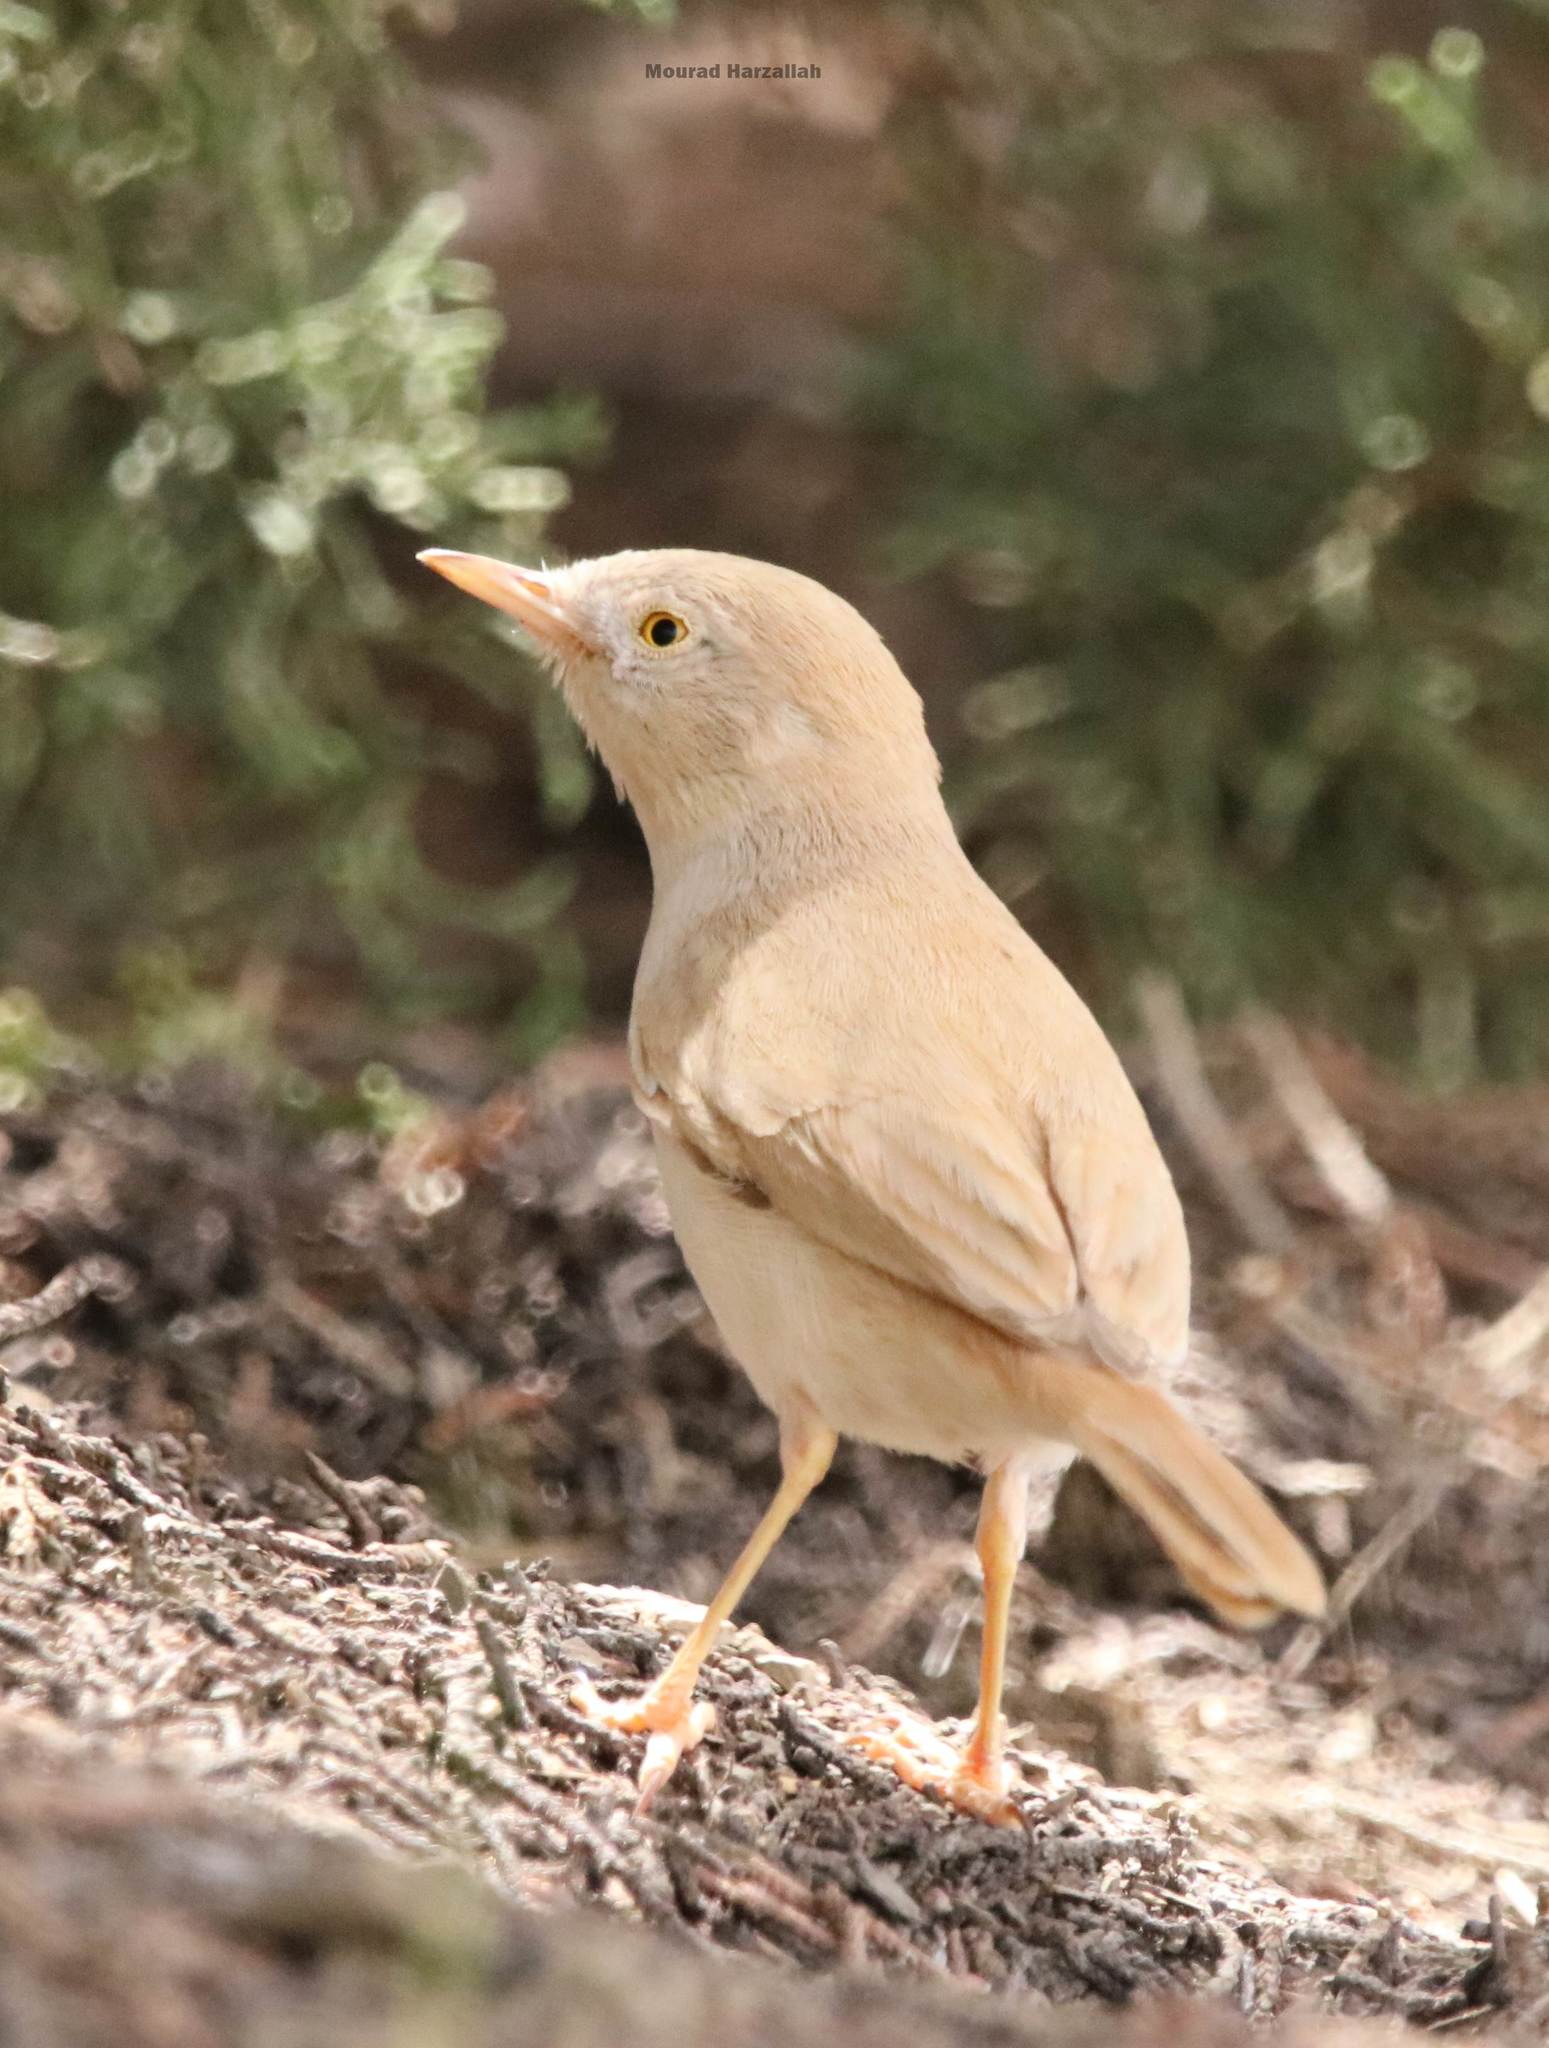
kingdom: Animalia
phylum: Chordata
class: Aves
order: Passeriformes
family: Sylviidae
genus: Sylvia
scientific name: Sylvia deserti
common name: African desert warbler
